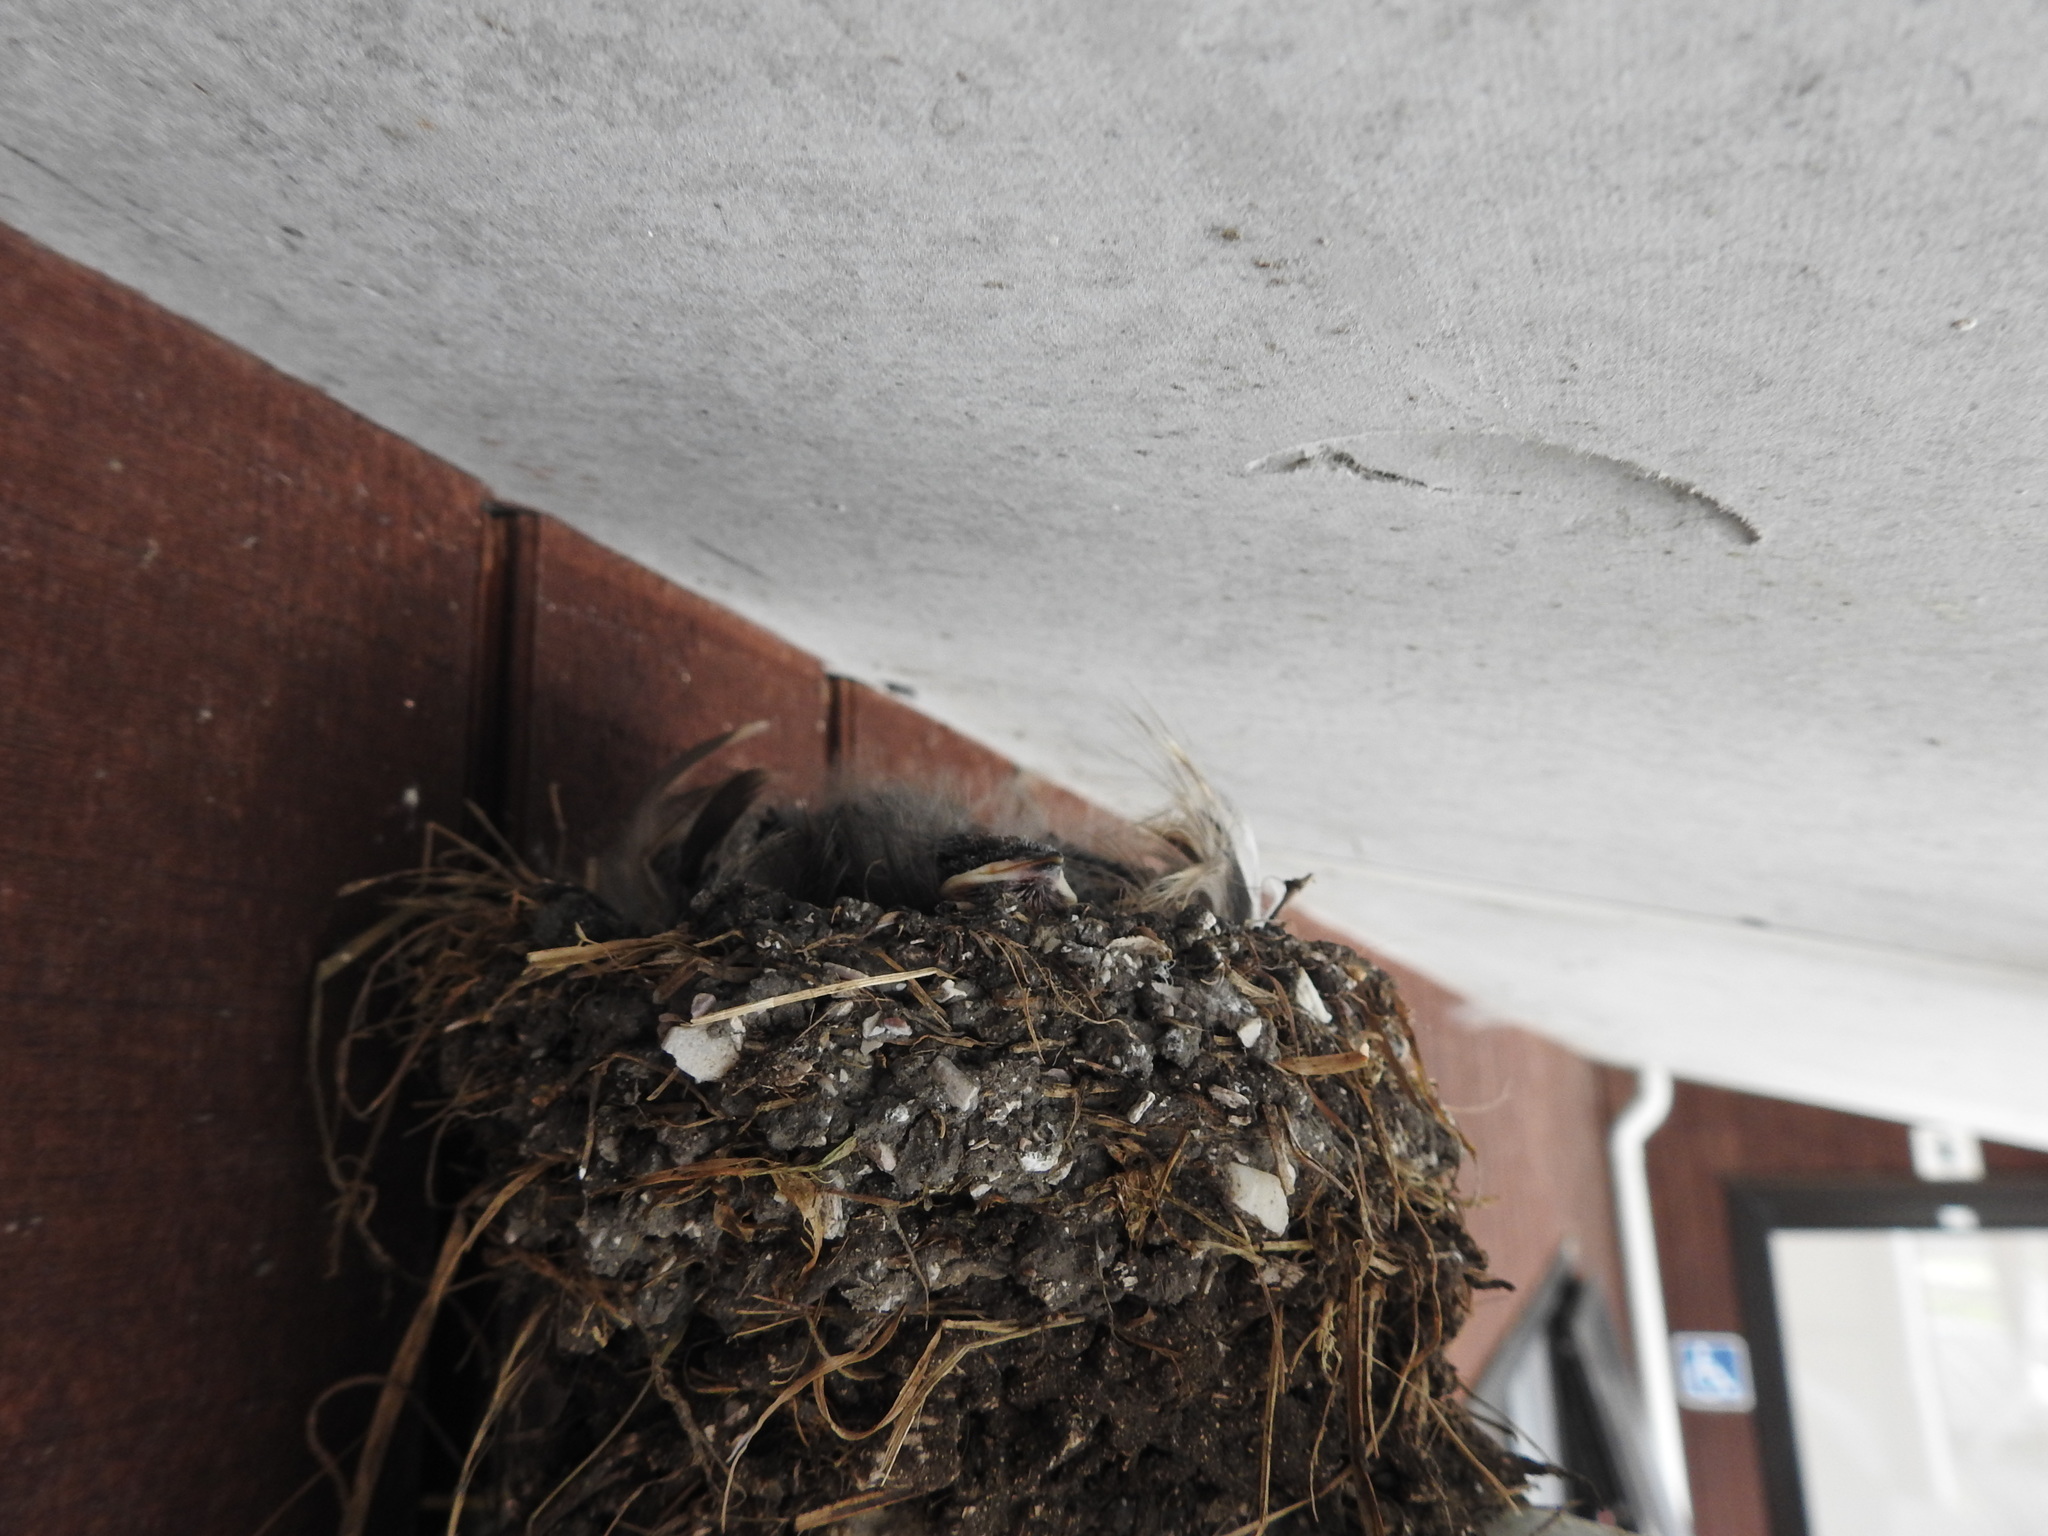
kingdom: Animalia
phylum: Chordata
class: Aves
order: Passeriformes
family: Hirundinidae
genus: Hirundo
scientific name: Hirundo neoxena
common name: Welcome swallow
